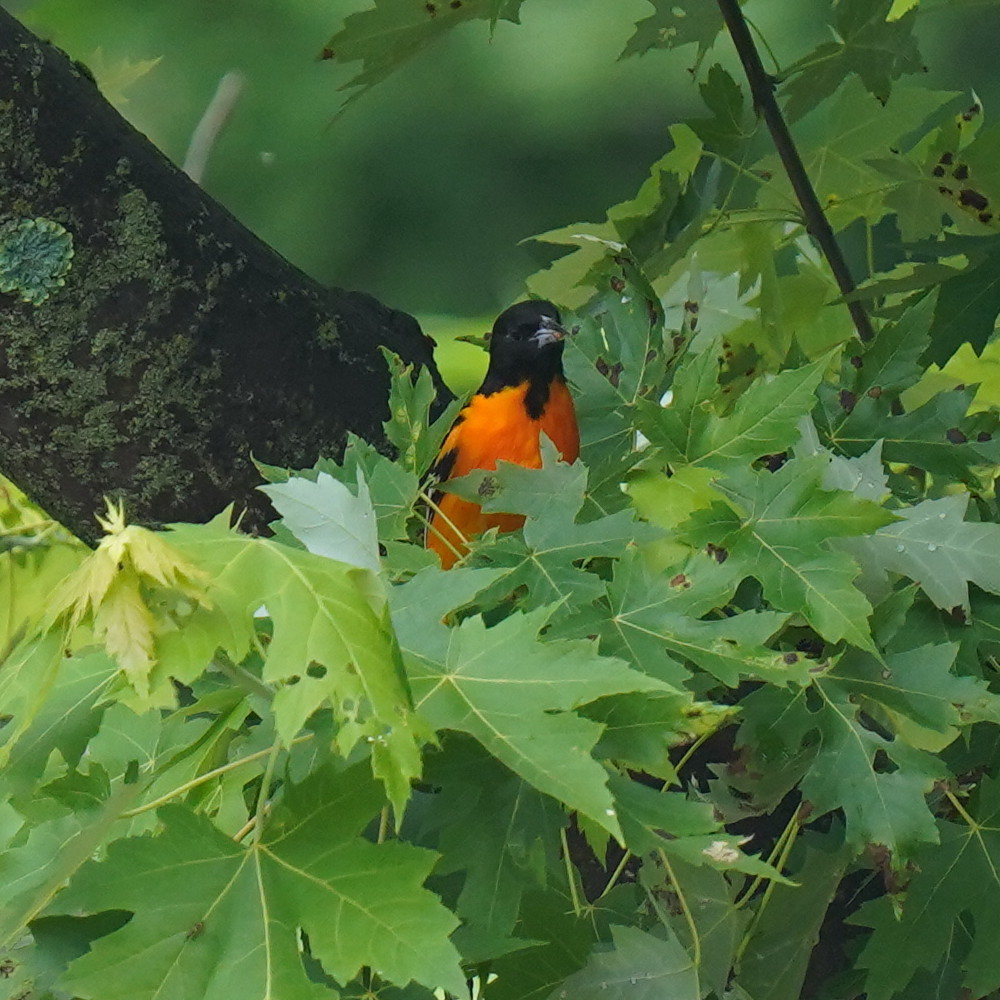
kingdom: Animalia
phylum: Chordata
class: Aves
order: Passeriformes
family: Icteridae
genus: Icterus
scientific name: Icterus galbula
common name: Baltimore oriole
